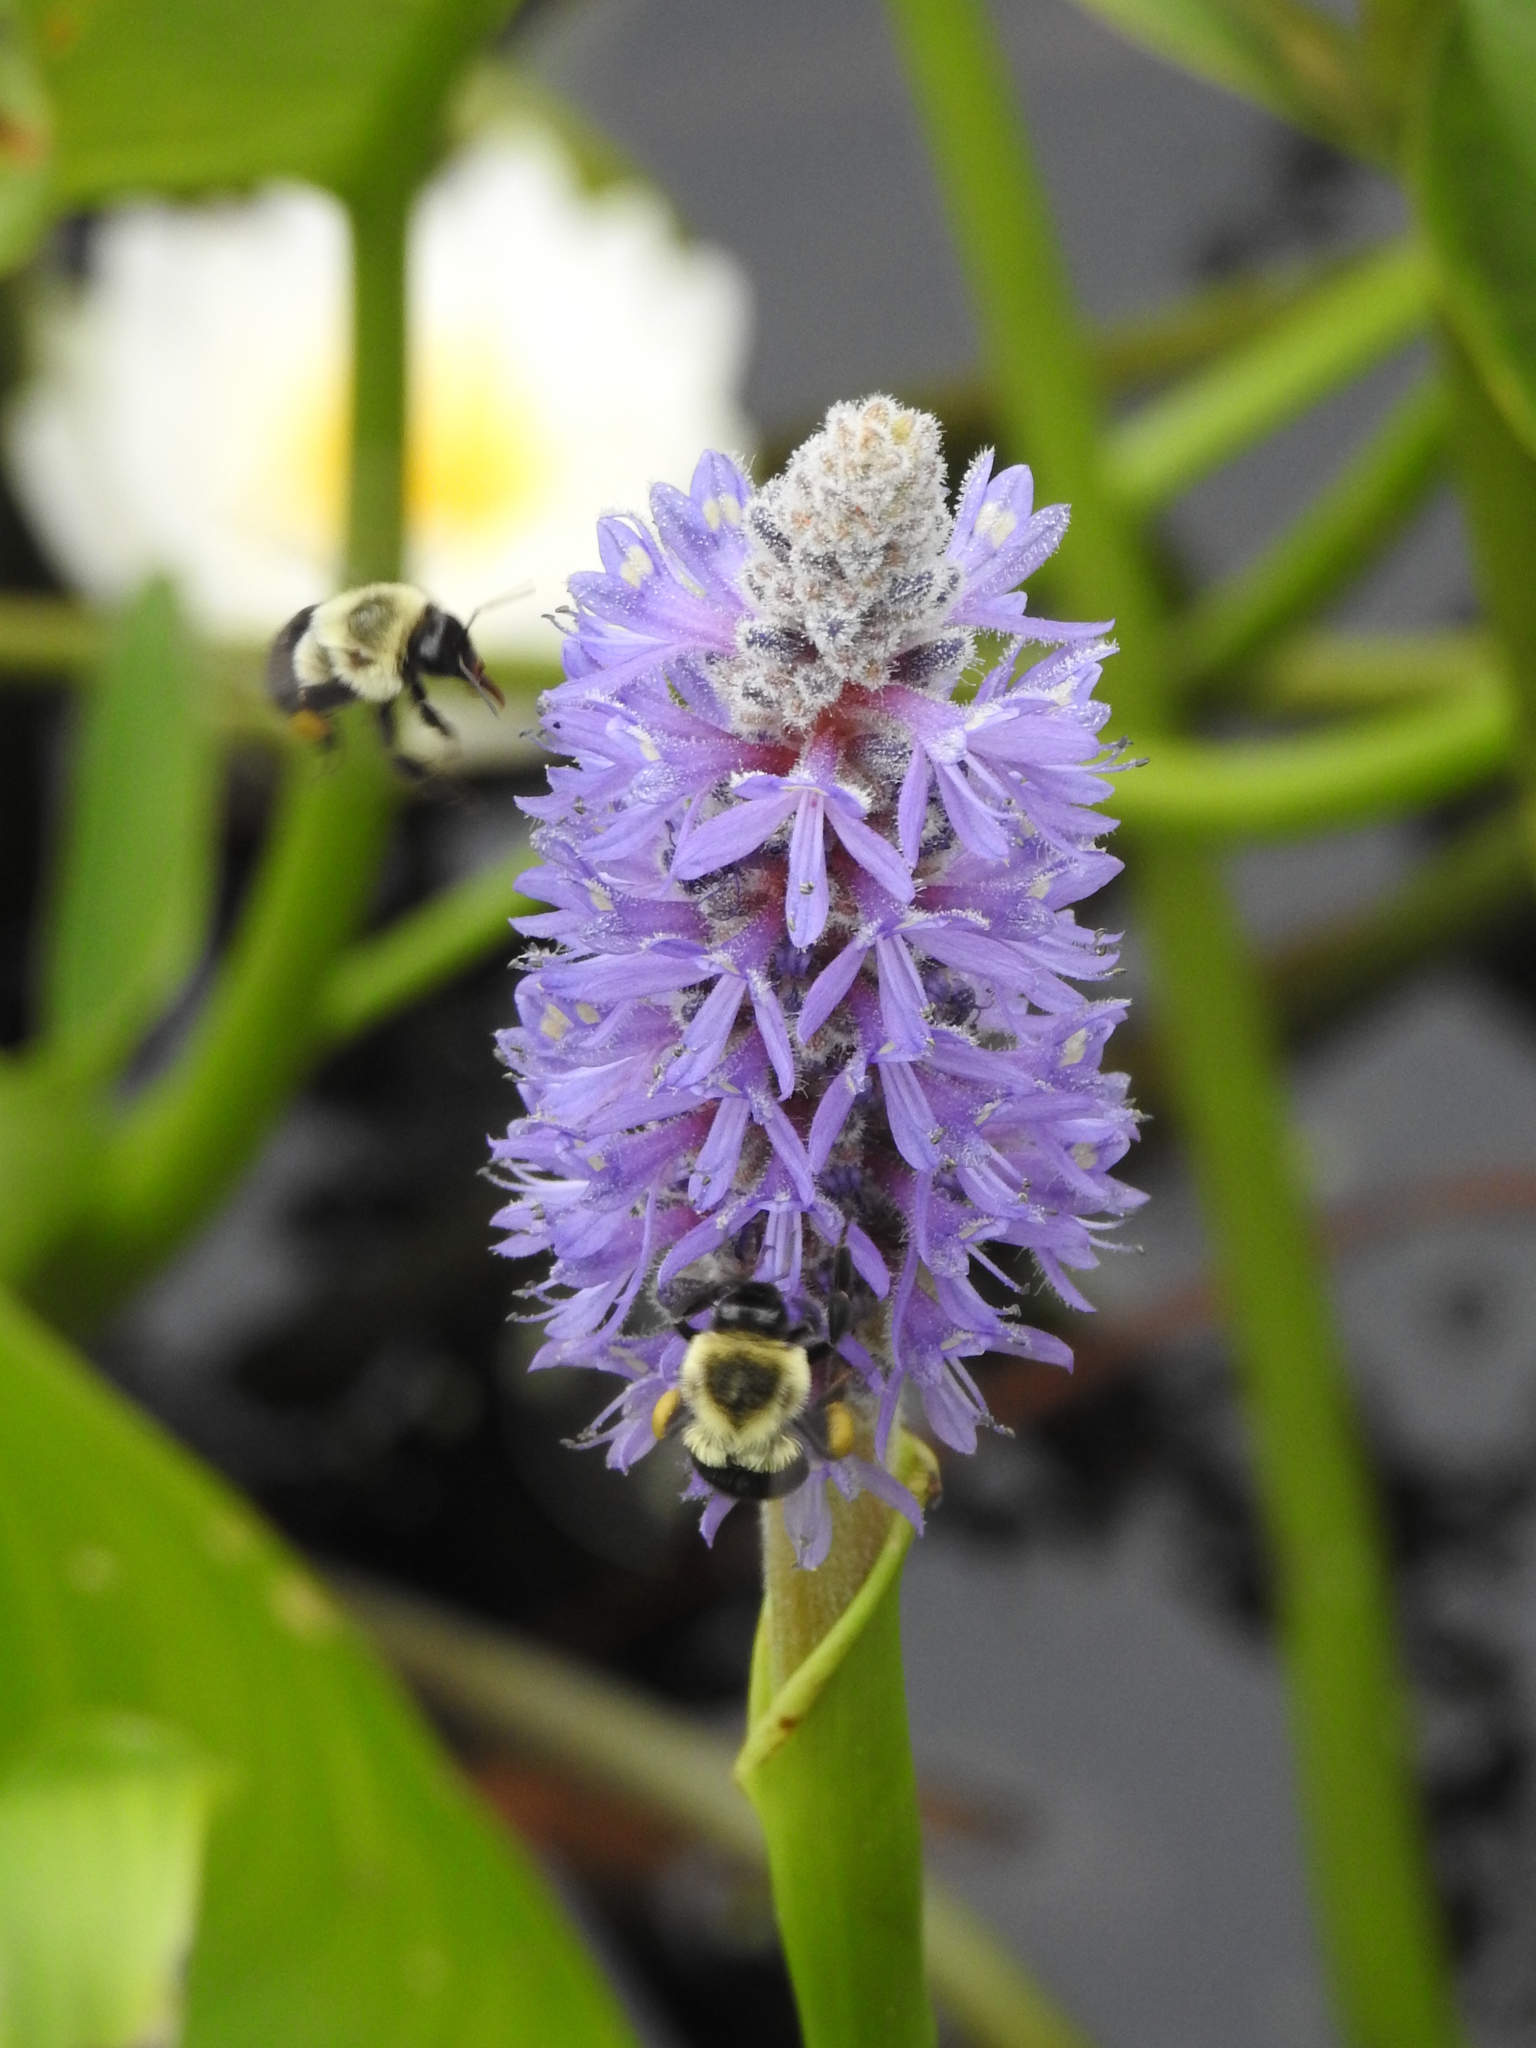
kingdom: Plantae
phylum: Tracheophyta
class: Liliopsida
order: Commelinales
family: Pontederiaceae
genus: Pontederia
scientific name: Pontederia cordata
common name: Pickerelweed
